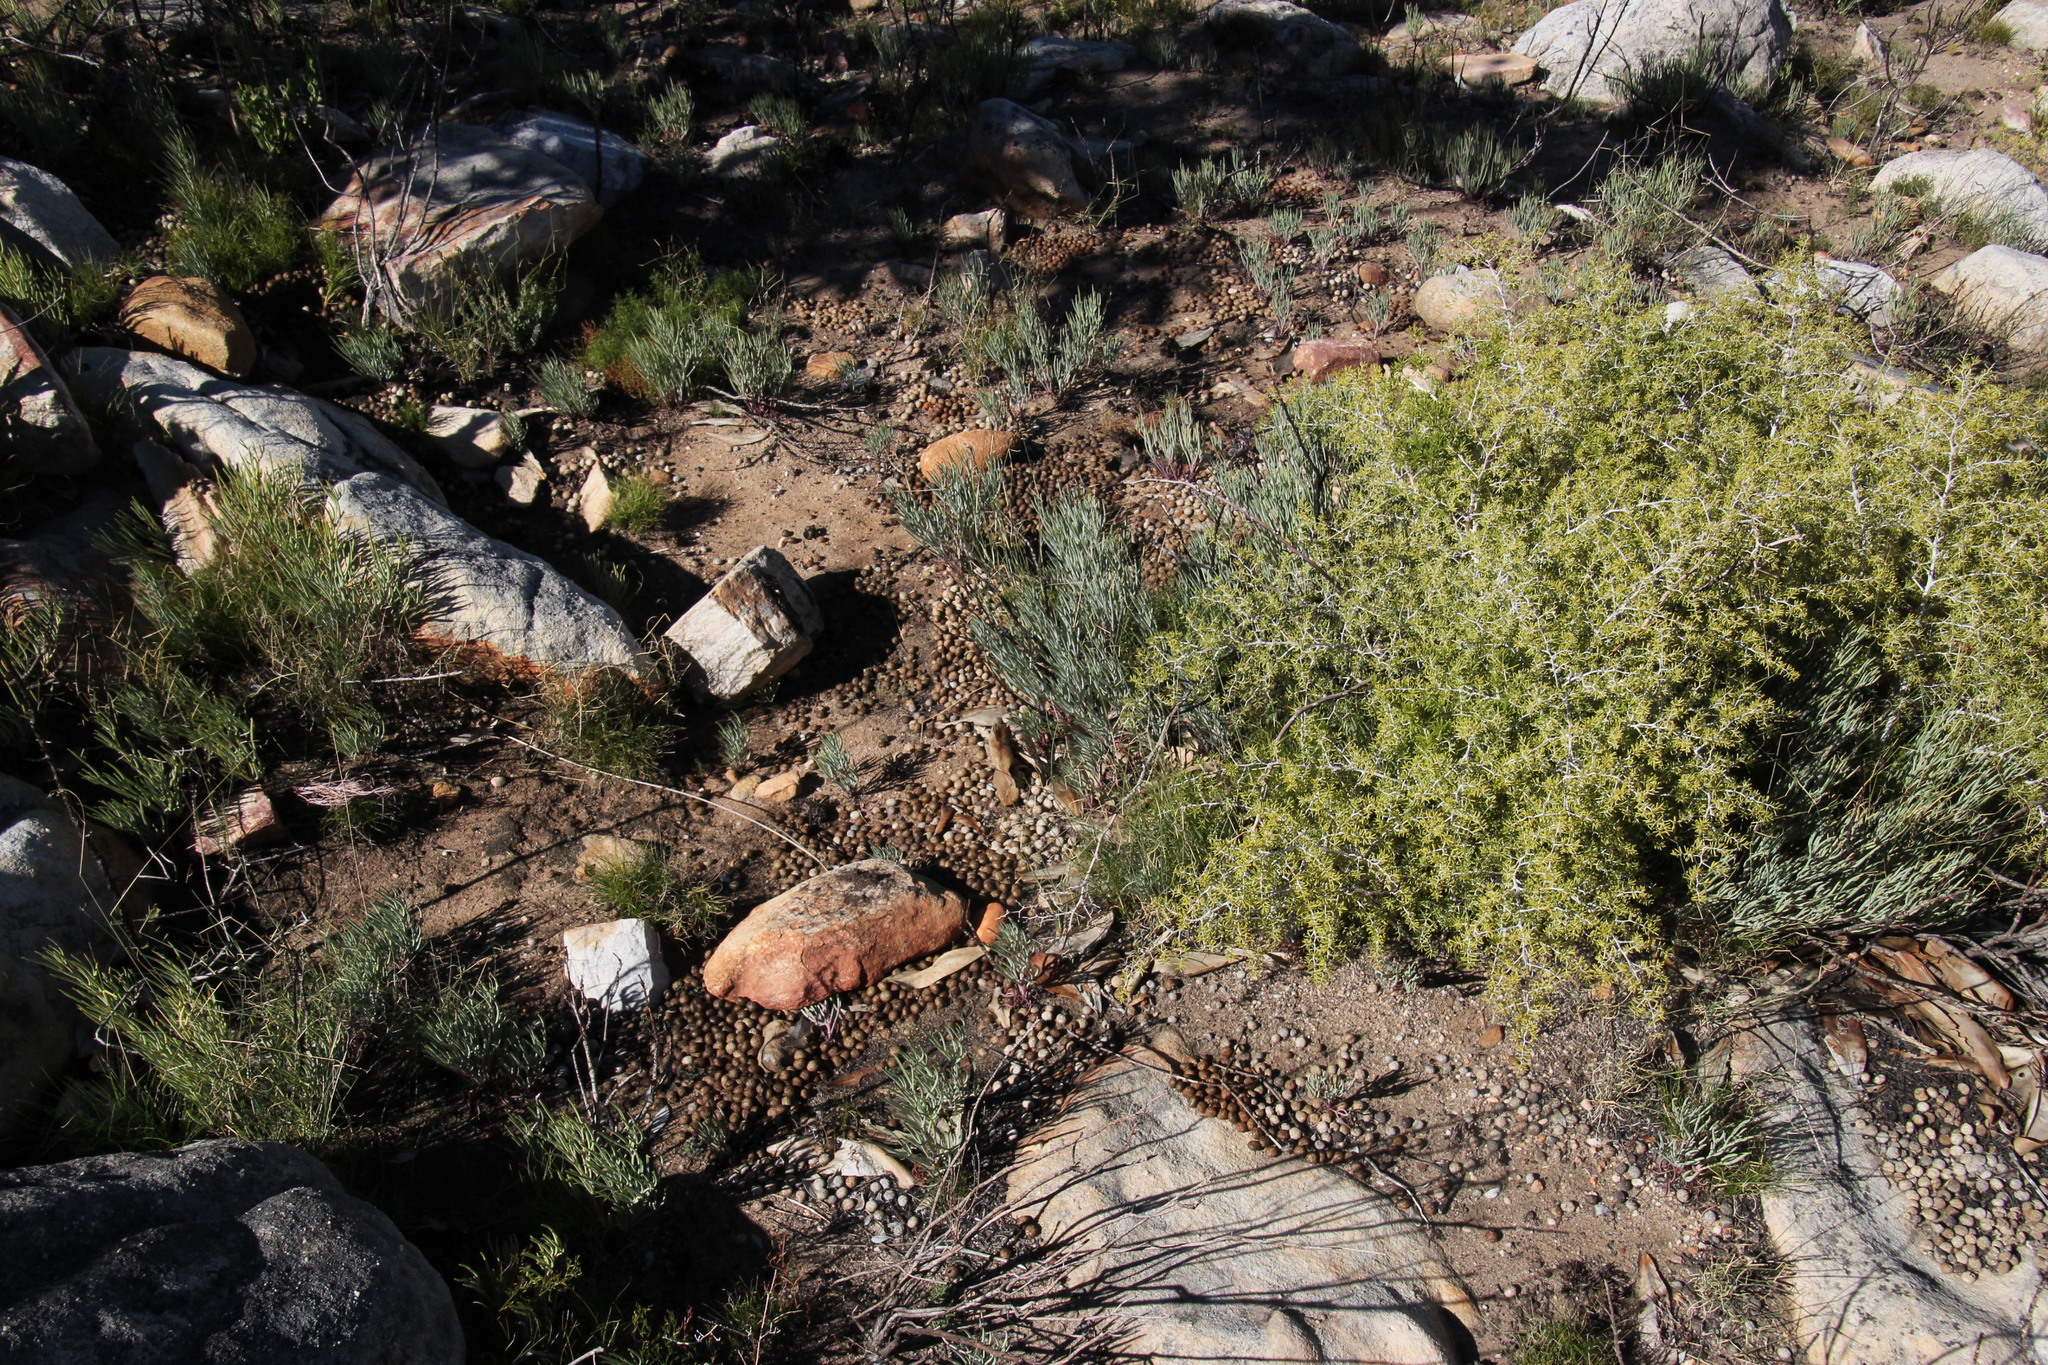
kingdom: Animalia
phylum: Chordata
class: Mammalia
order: Lagomorpha
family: Leporidae
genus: Pronolagus
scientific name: Pronolagus saundersiae
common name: Hewitt's red rock hare
